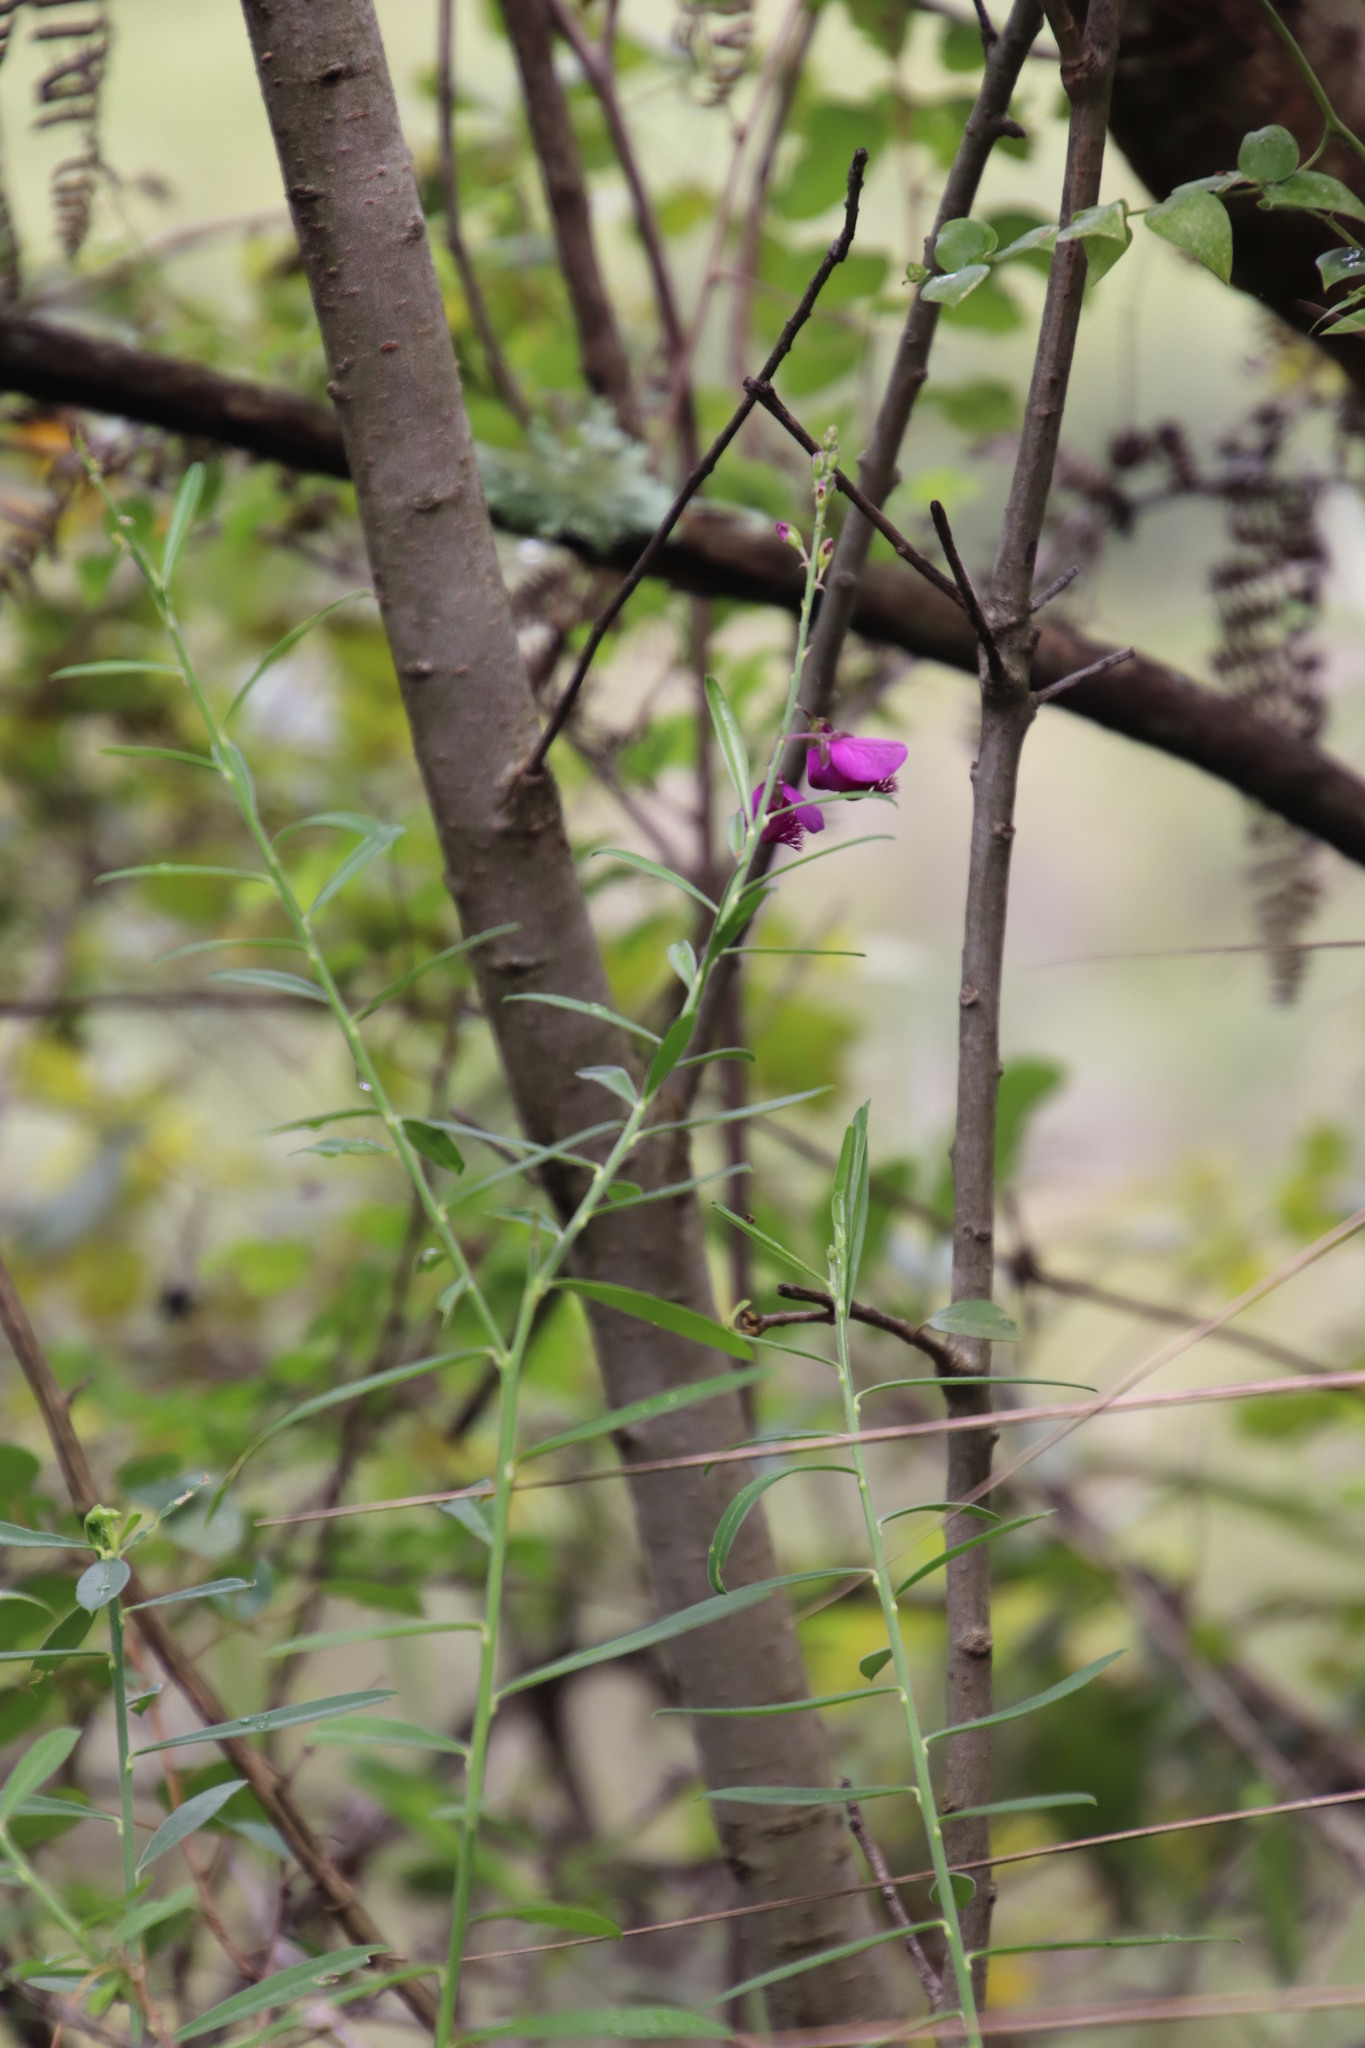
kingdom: Plantae
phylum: Tracheophyta
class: Magnoliopsida
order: Fabales
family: Polygalaceae
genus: Polygala
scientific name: Polygala virgata
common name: Milkwort
